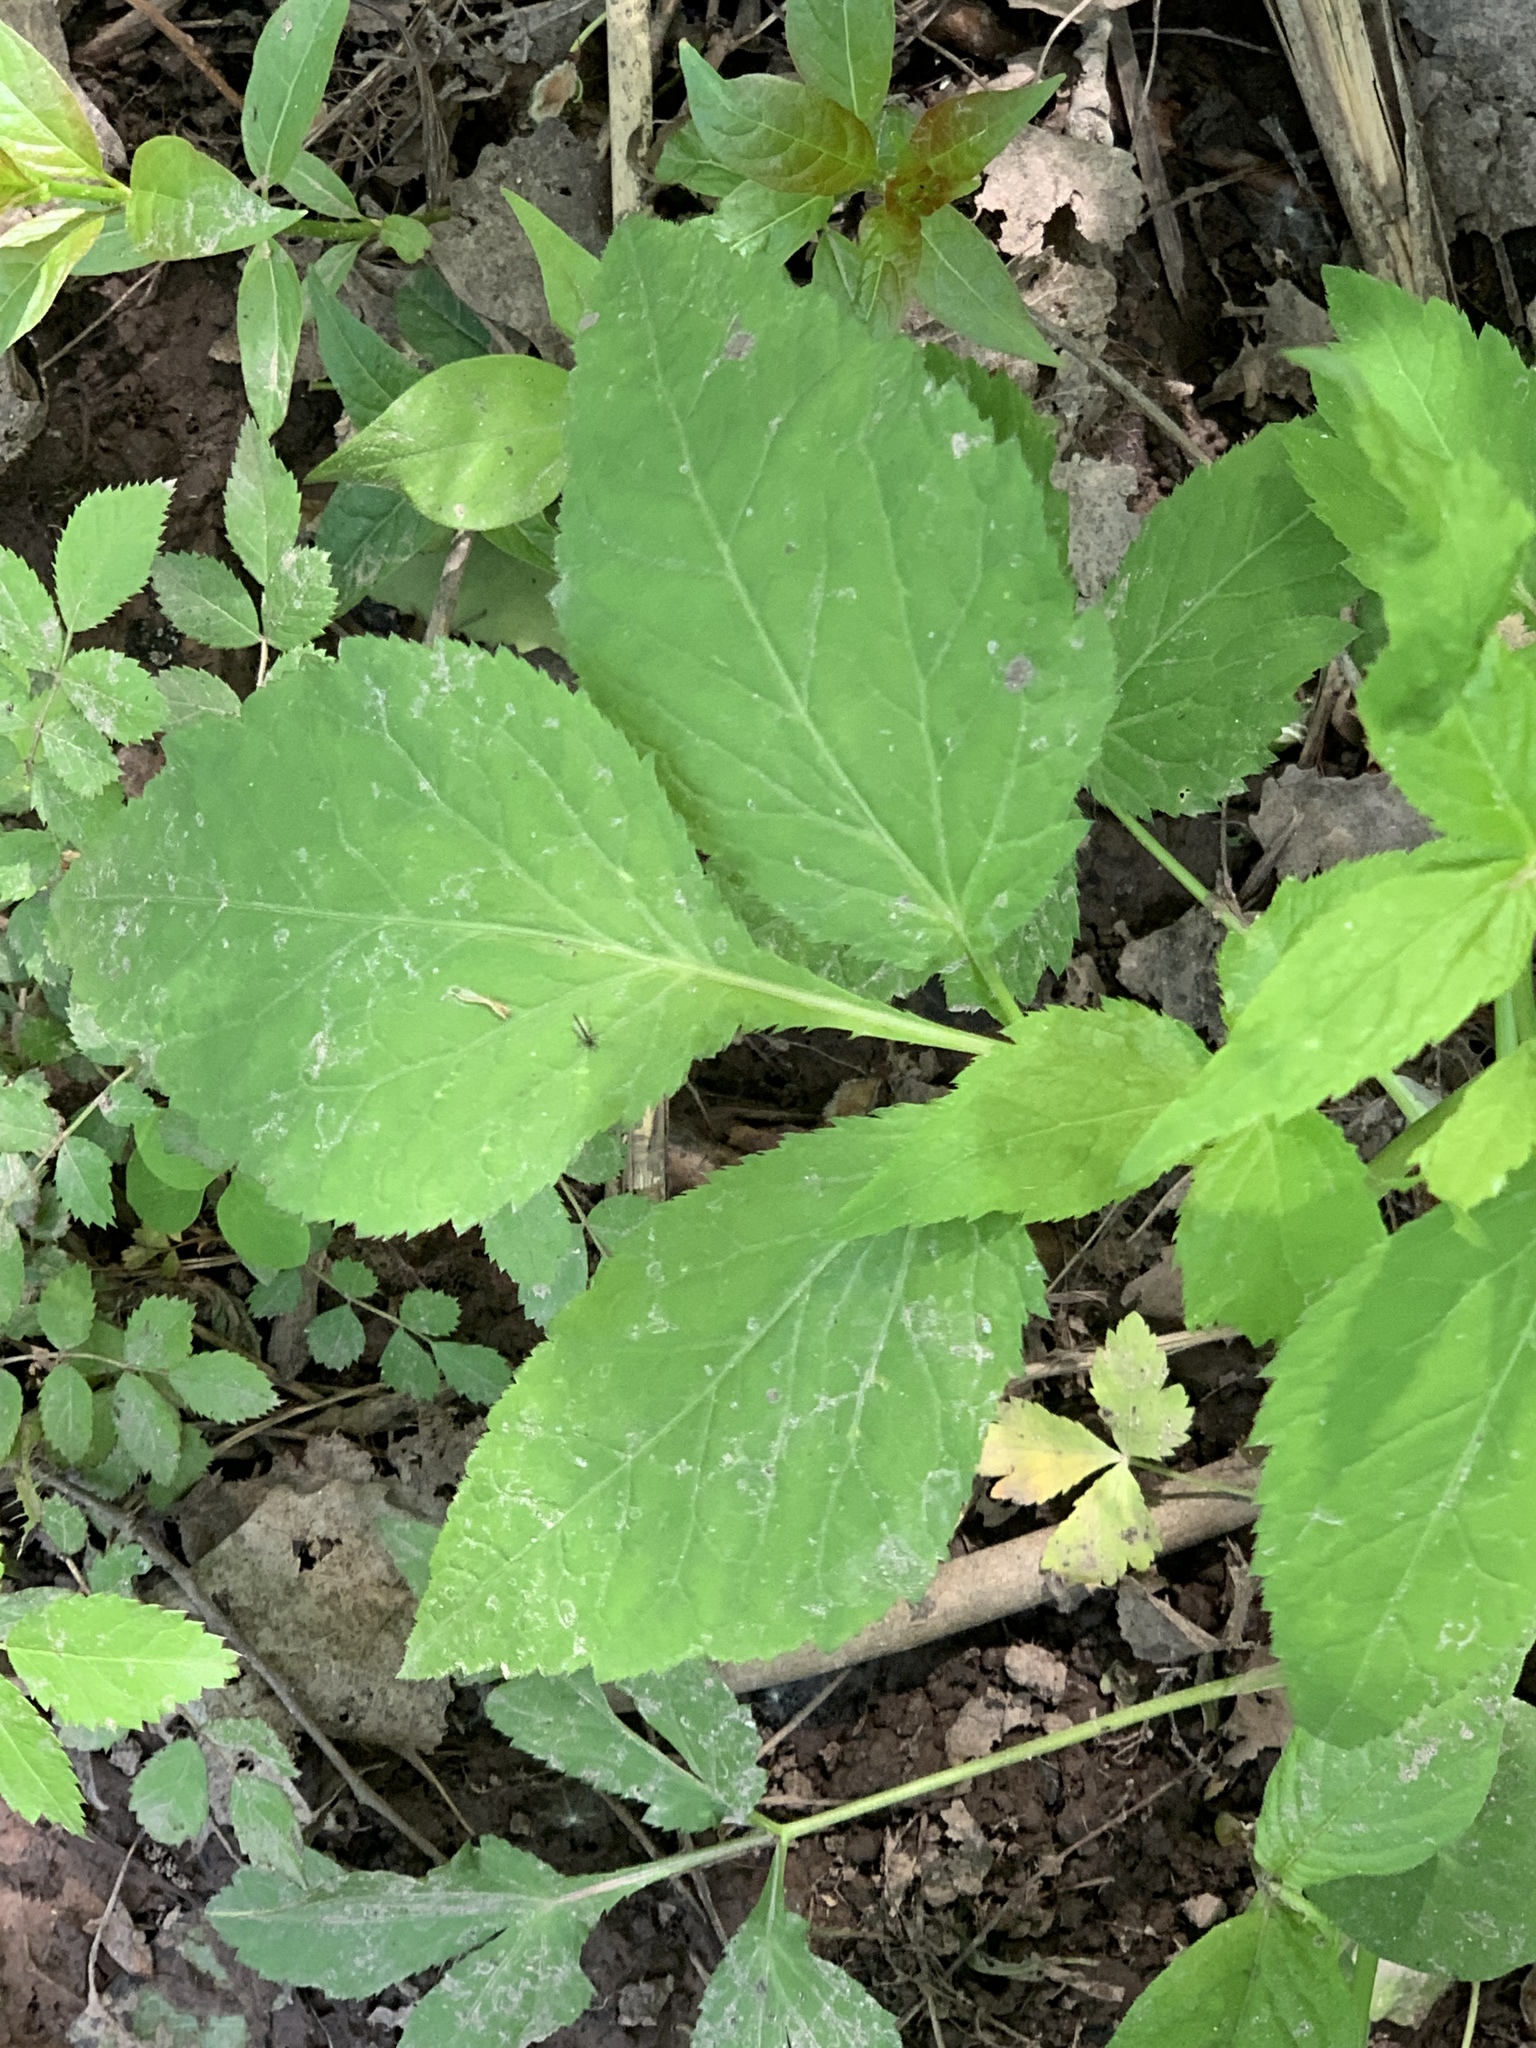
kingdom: Plantae
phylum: Tracheophyta
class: Magnoliopsida
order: Apiales
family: Apiaceae
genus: Cryptotaenia
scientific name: Cryptotaenia canadensis
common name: Honewort
